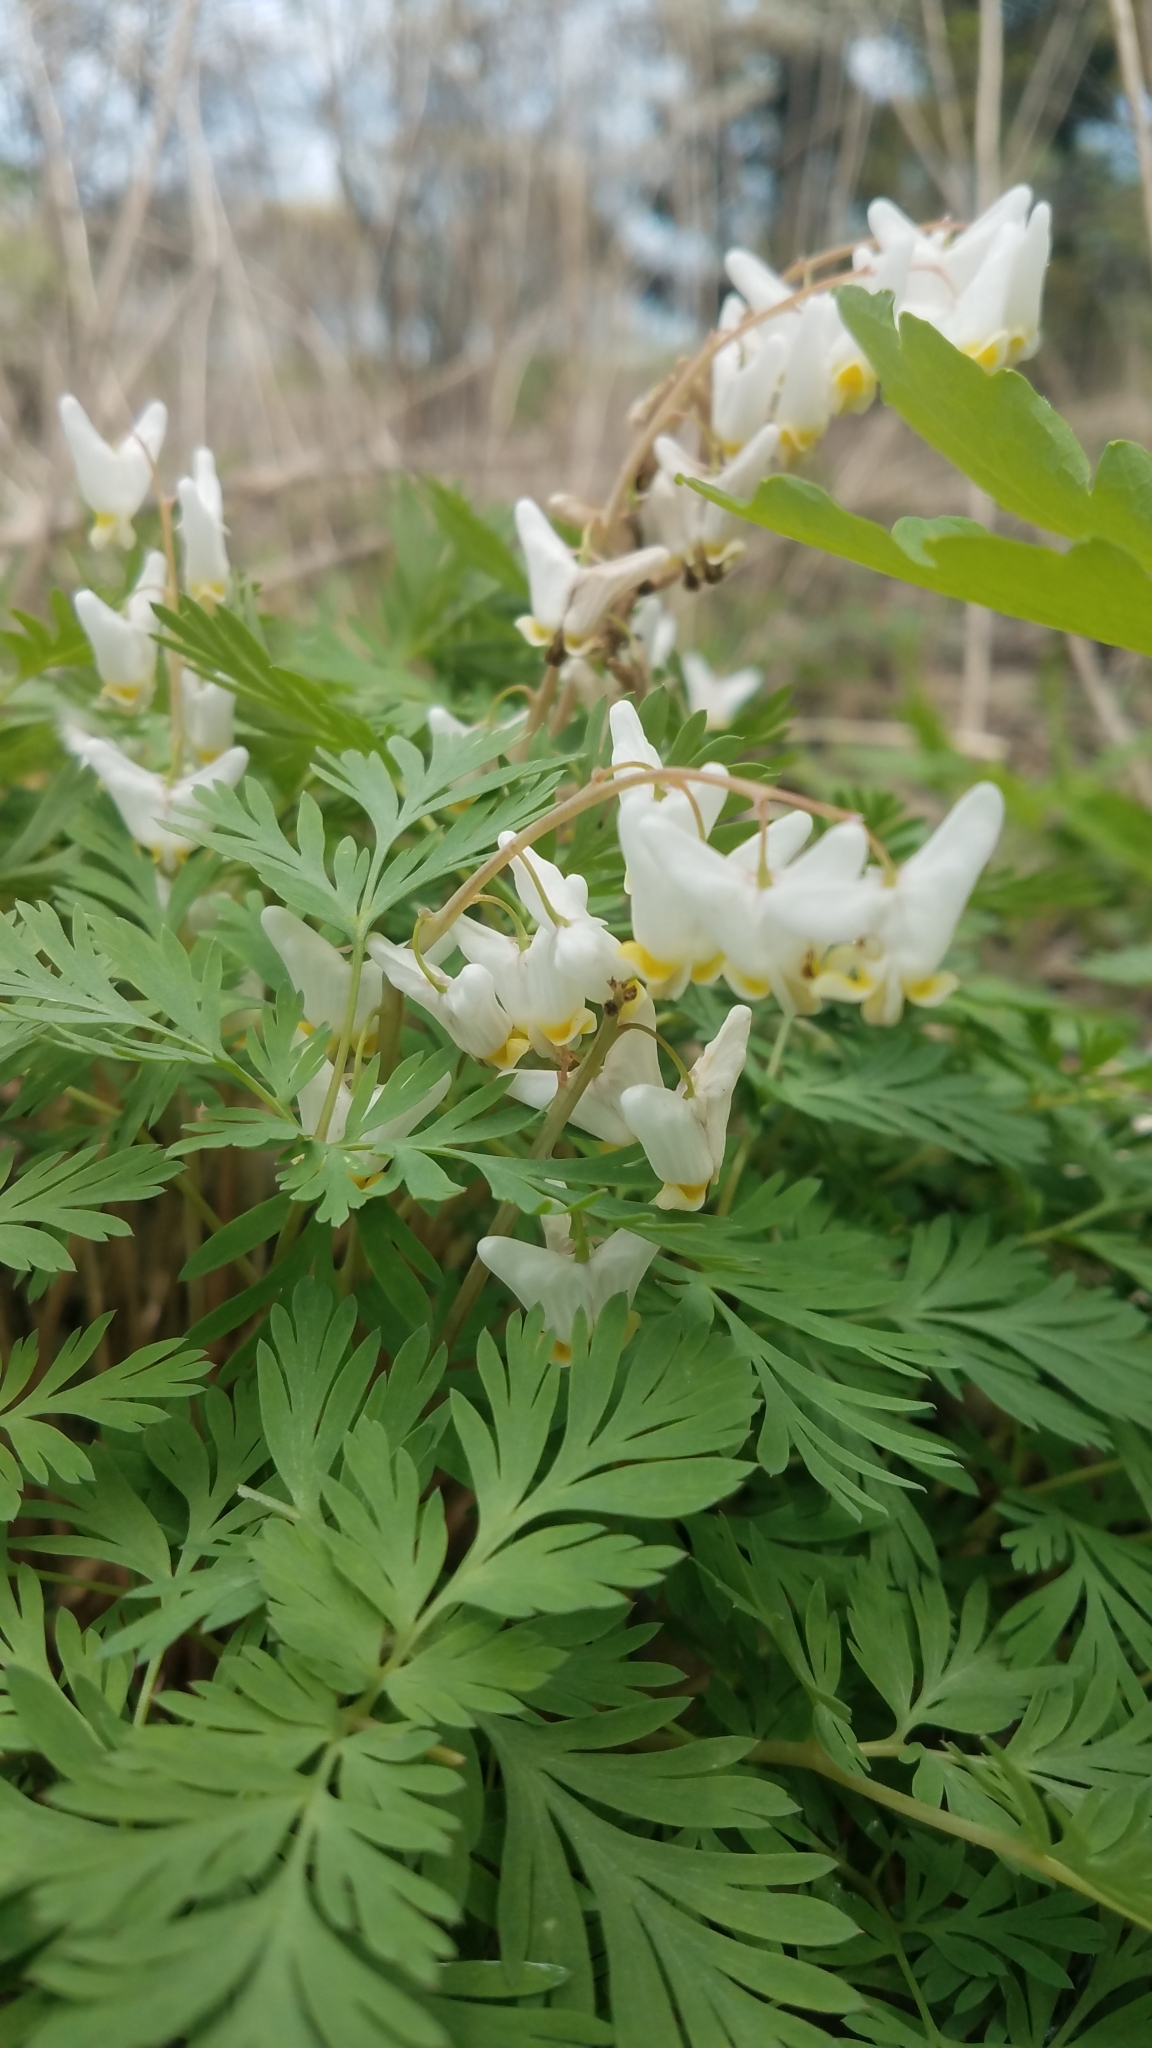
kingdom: Plantae
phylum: Tracheophyta
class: Magnoliopsida
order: Ranunculales
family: Papaveraceae
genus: Dicentra
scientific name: Dicentra cucullaria
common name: Dutchman's breeches
